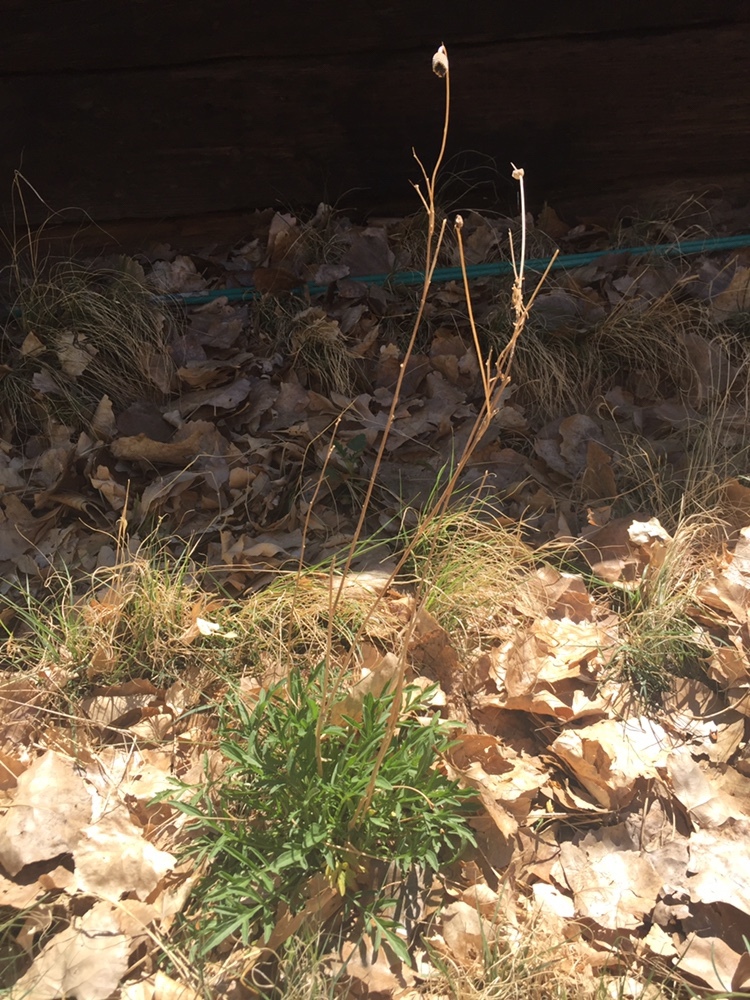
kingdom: Plantae
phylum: Tracheophyta
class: Magnoliopsida
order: Asterales
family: Asteraceae
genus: Ratibida
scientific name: Ratibida columnifera
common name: Prairie coneflower
